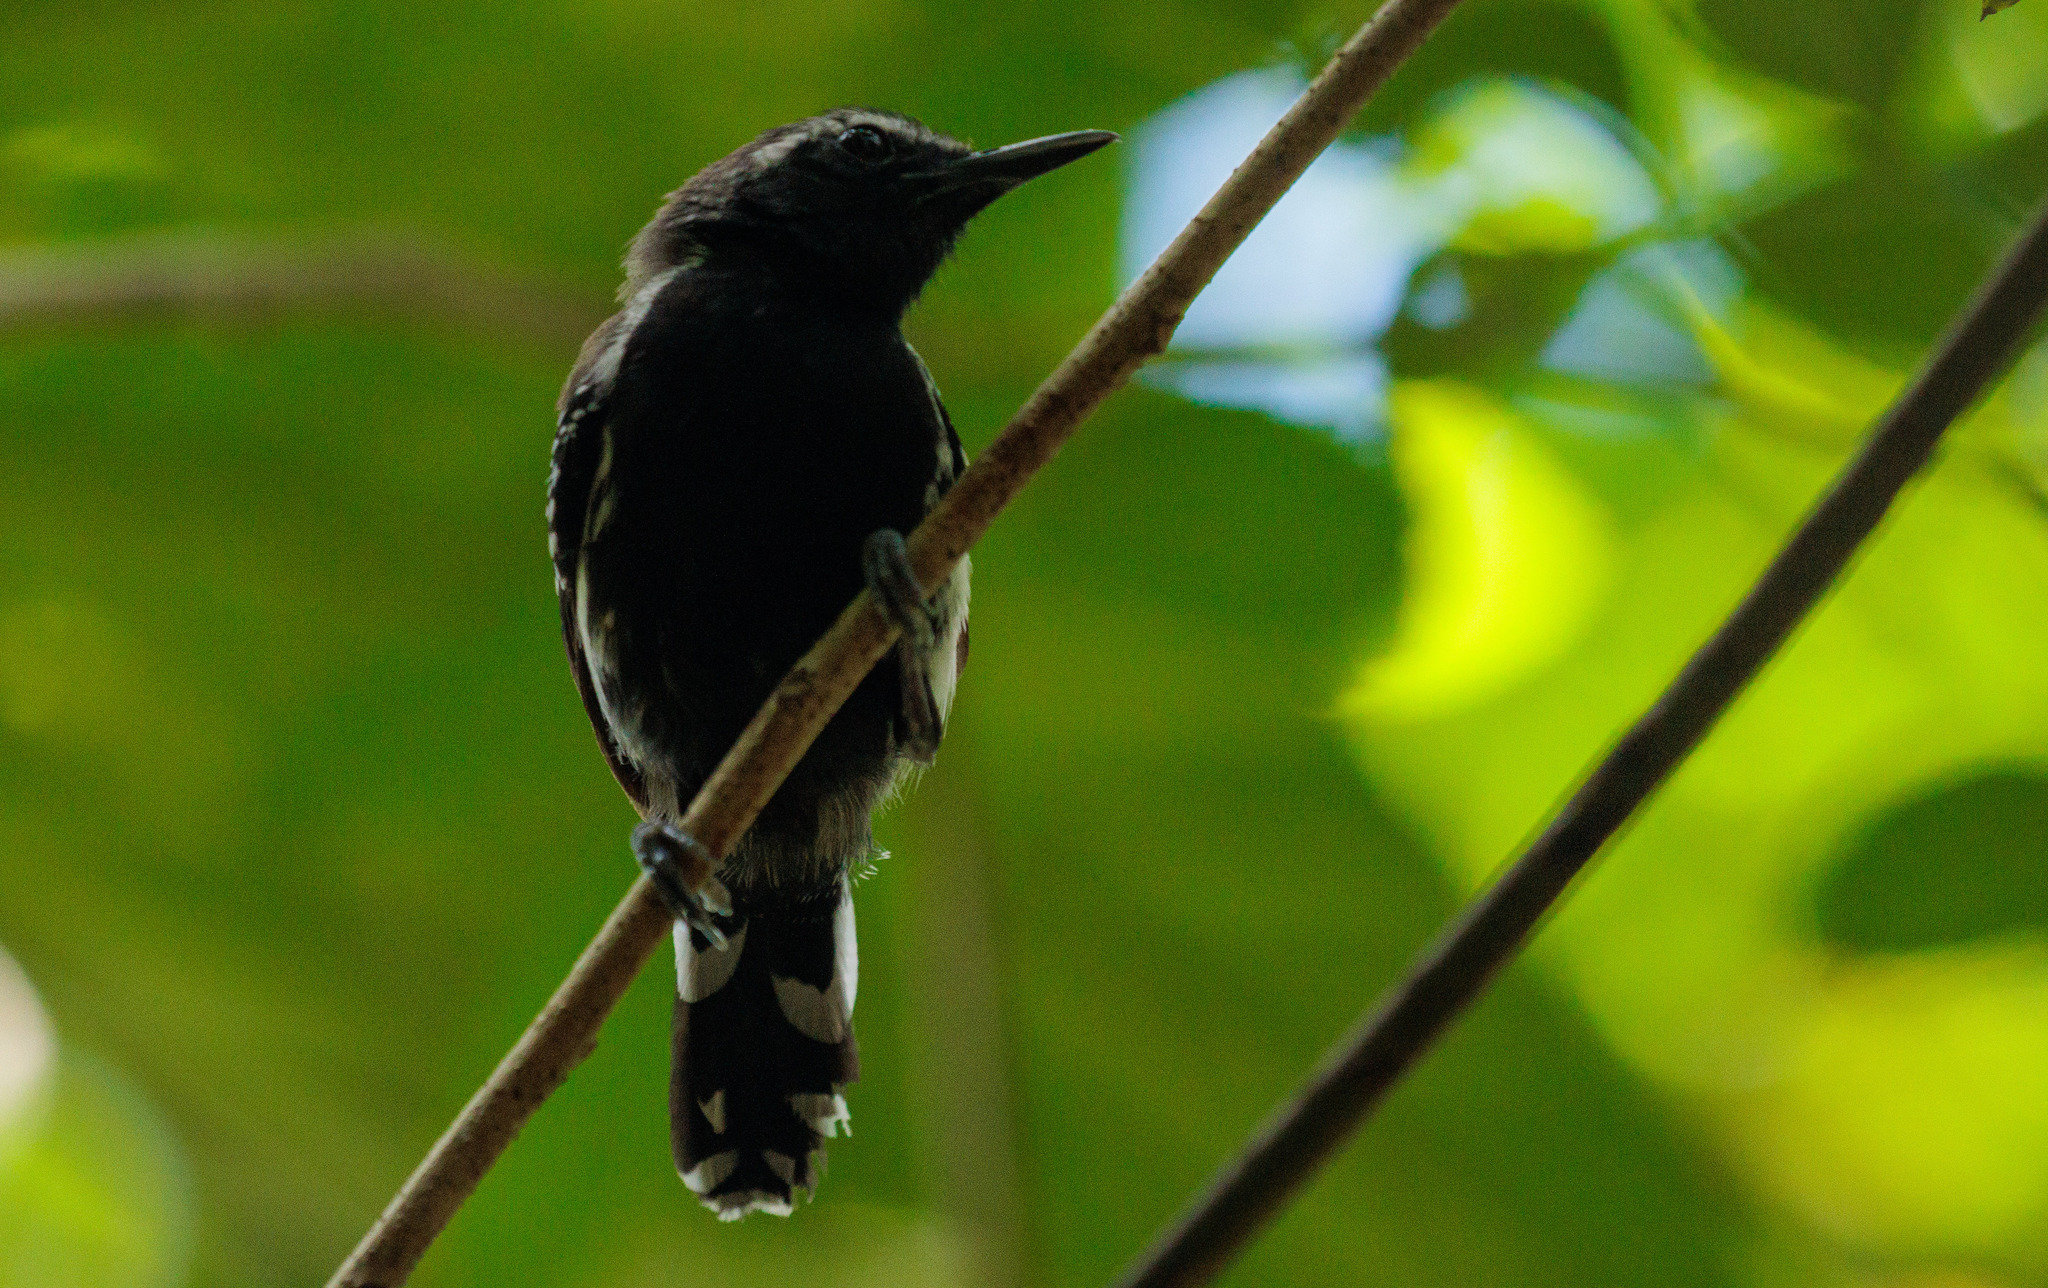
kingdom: Animalia
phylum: Chordata
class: Aves
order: Passeriformes
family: Thamnophilidae
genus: Formicivora
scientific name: Formicivora grisea
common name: Southern white-fringed antwren
